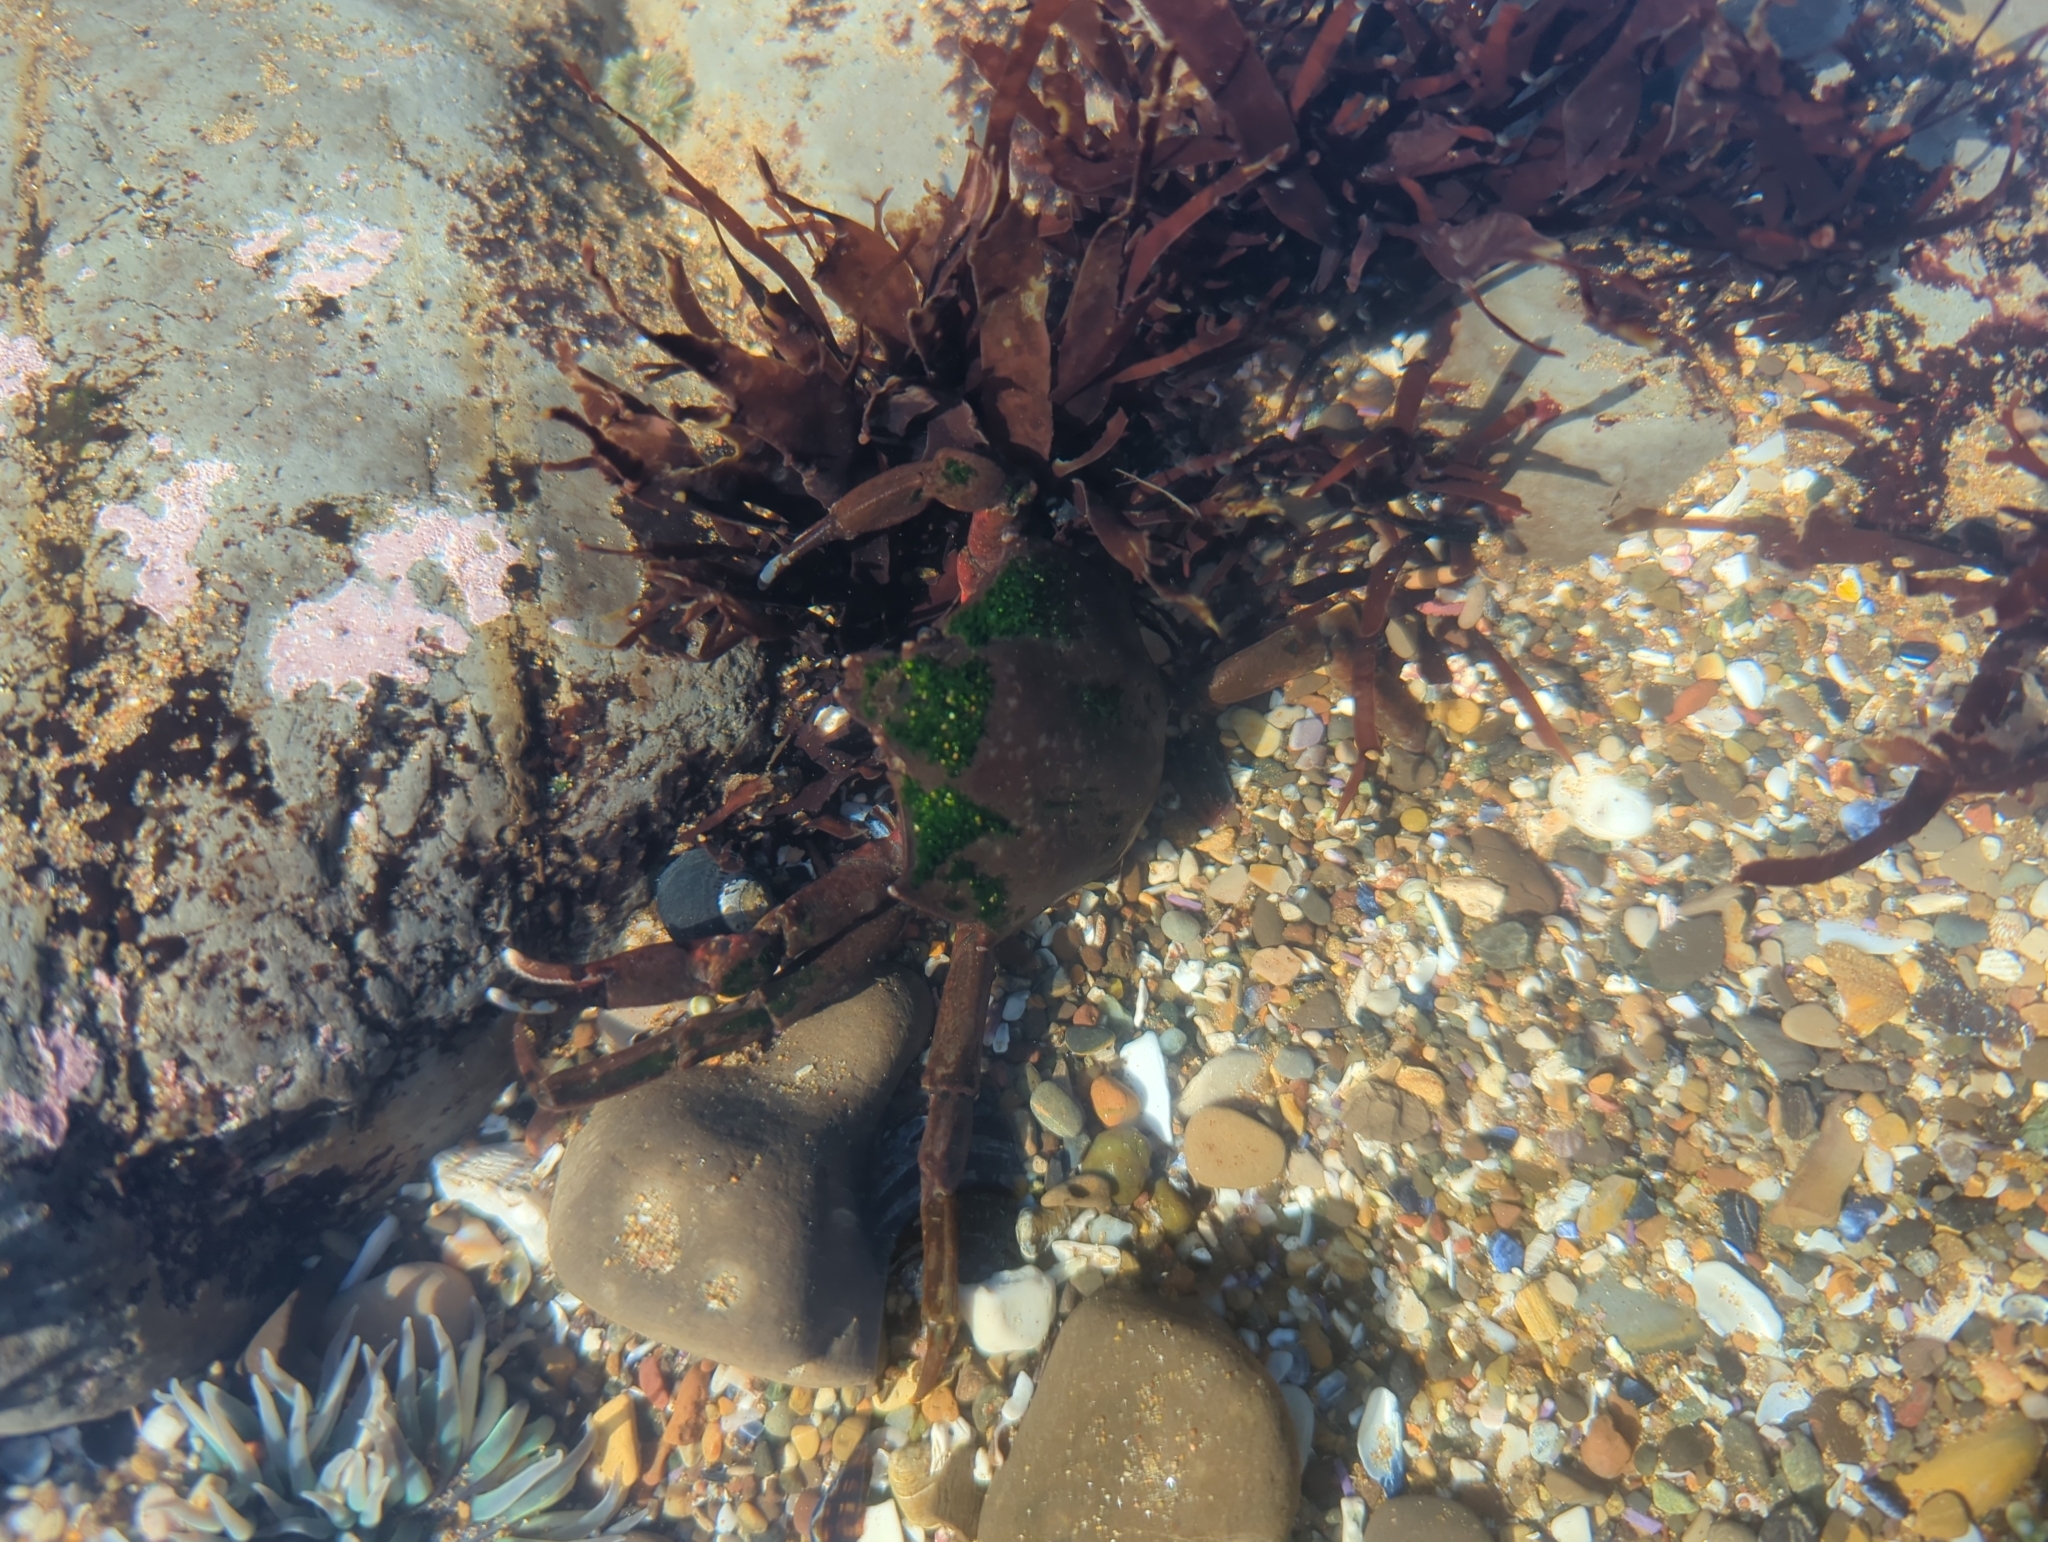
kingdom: Animalia
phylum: Arthropoda
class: Malacostraca
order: Decapoda
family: Epialtidae
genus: Pugettia
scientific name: Pugettia producta
